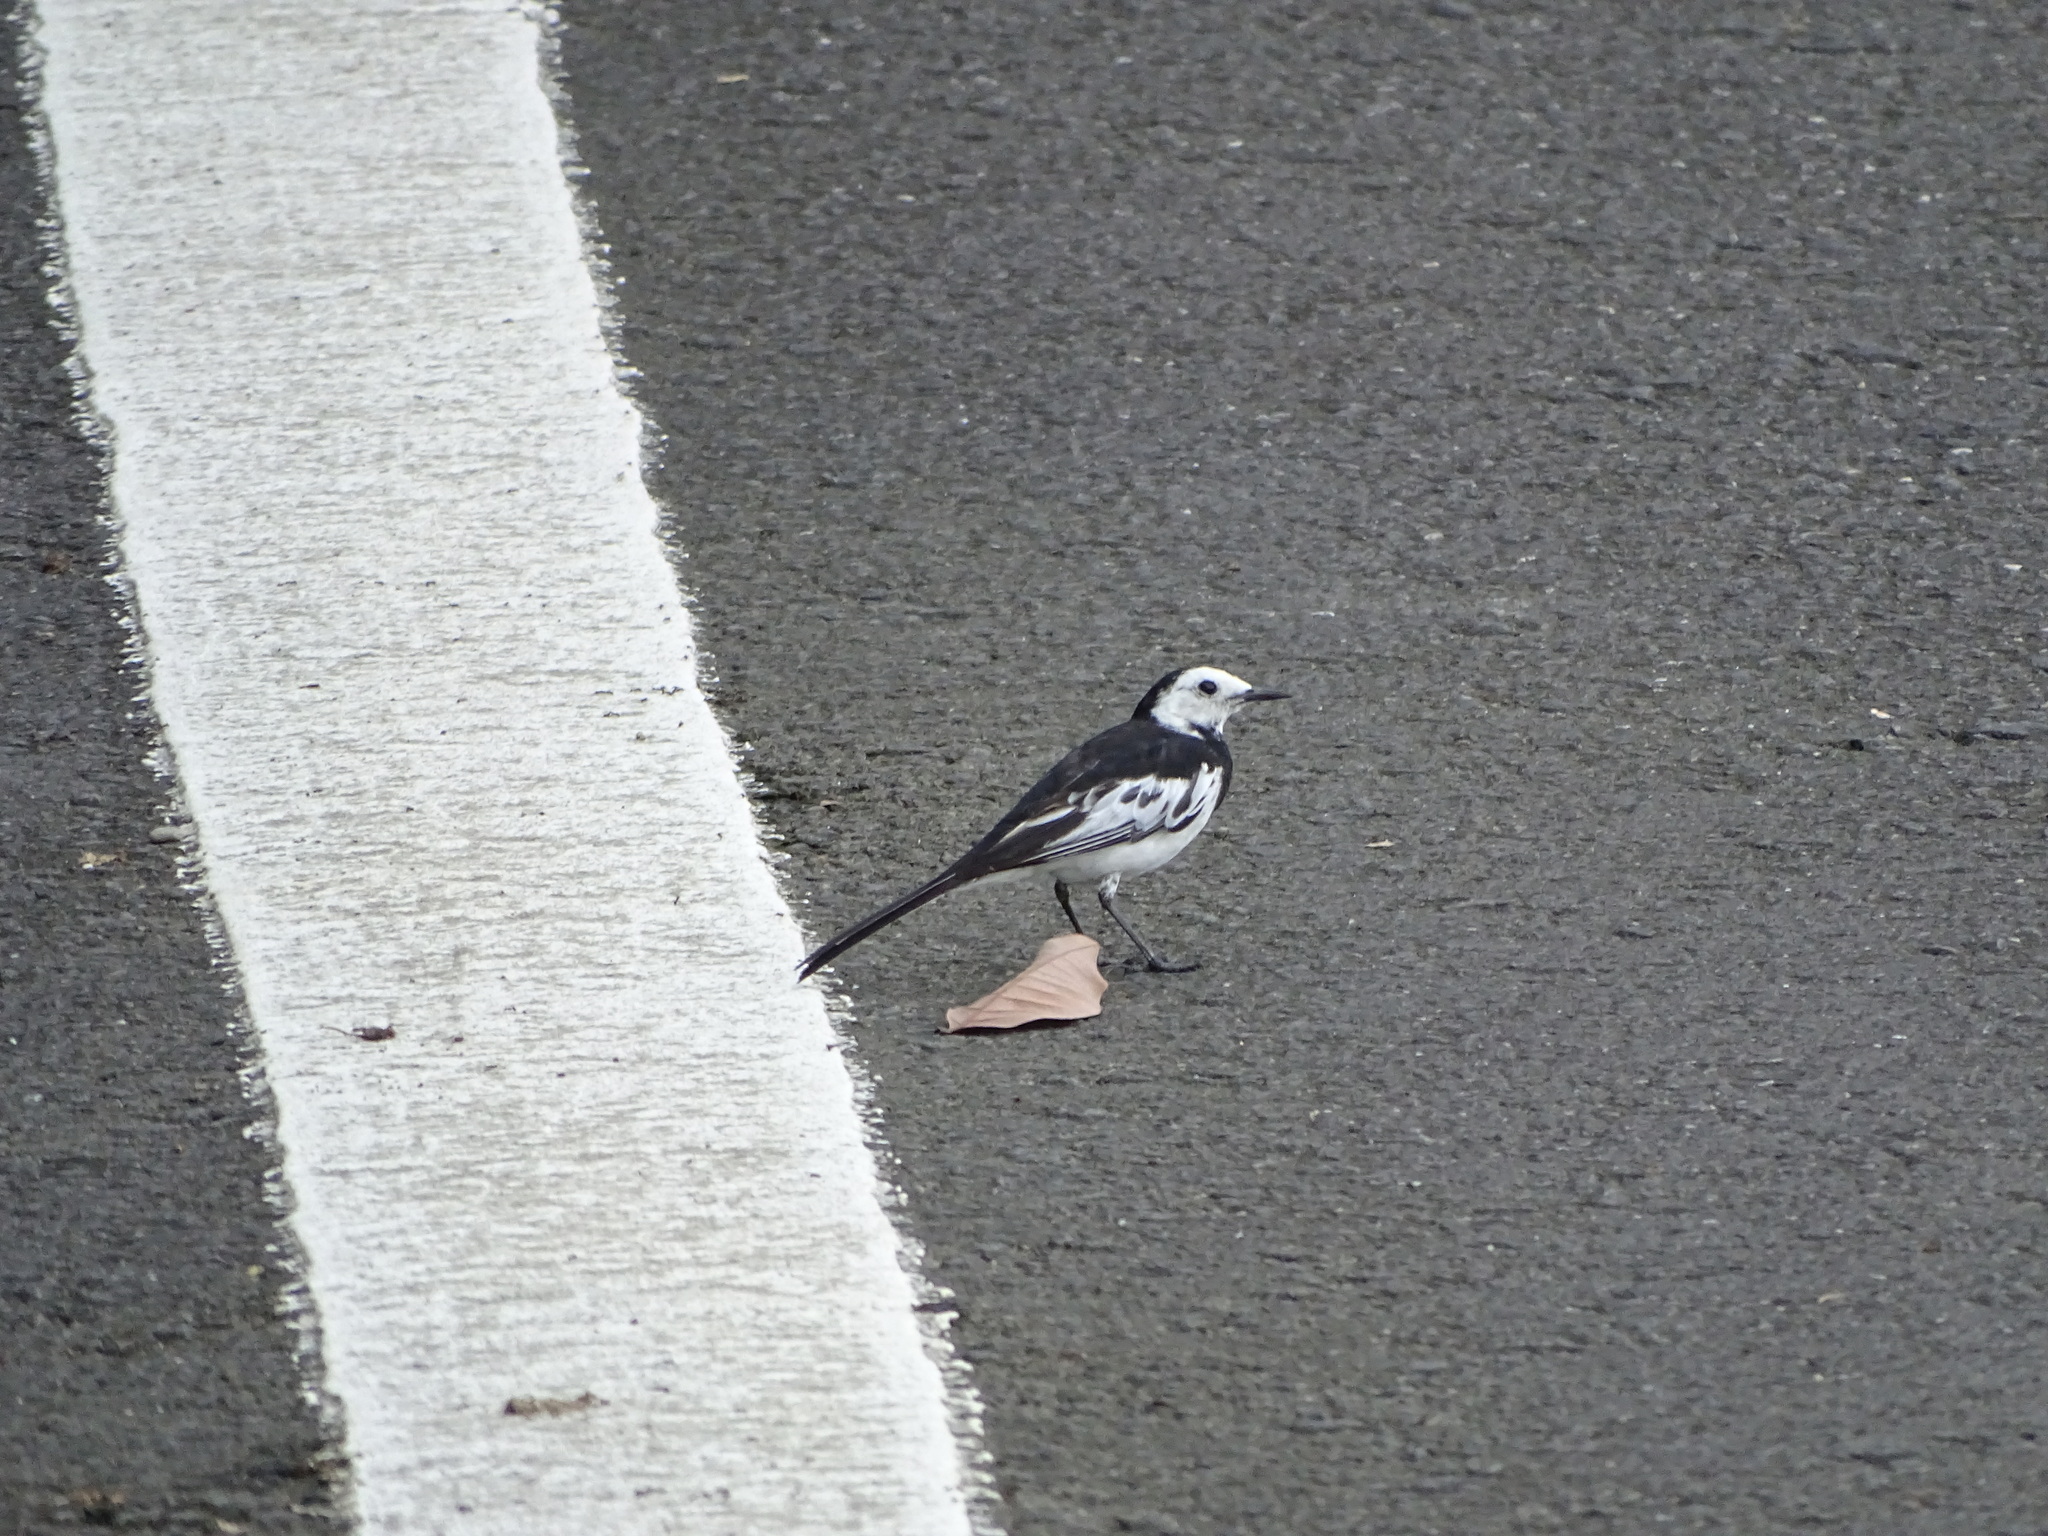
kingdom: Animalia
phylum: Chordata
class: Aves
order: Passeriformes
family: Motacillidae
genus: Motacilla
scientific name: Motacilla alba
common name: White wagtail
